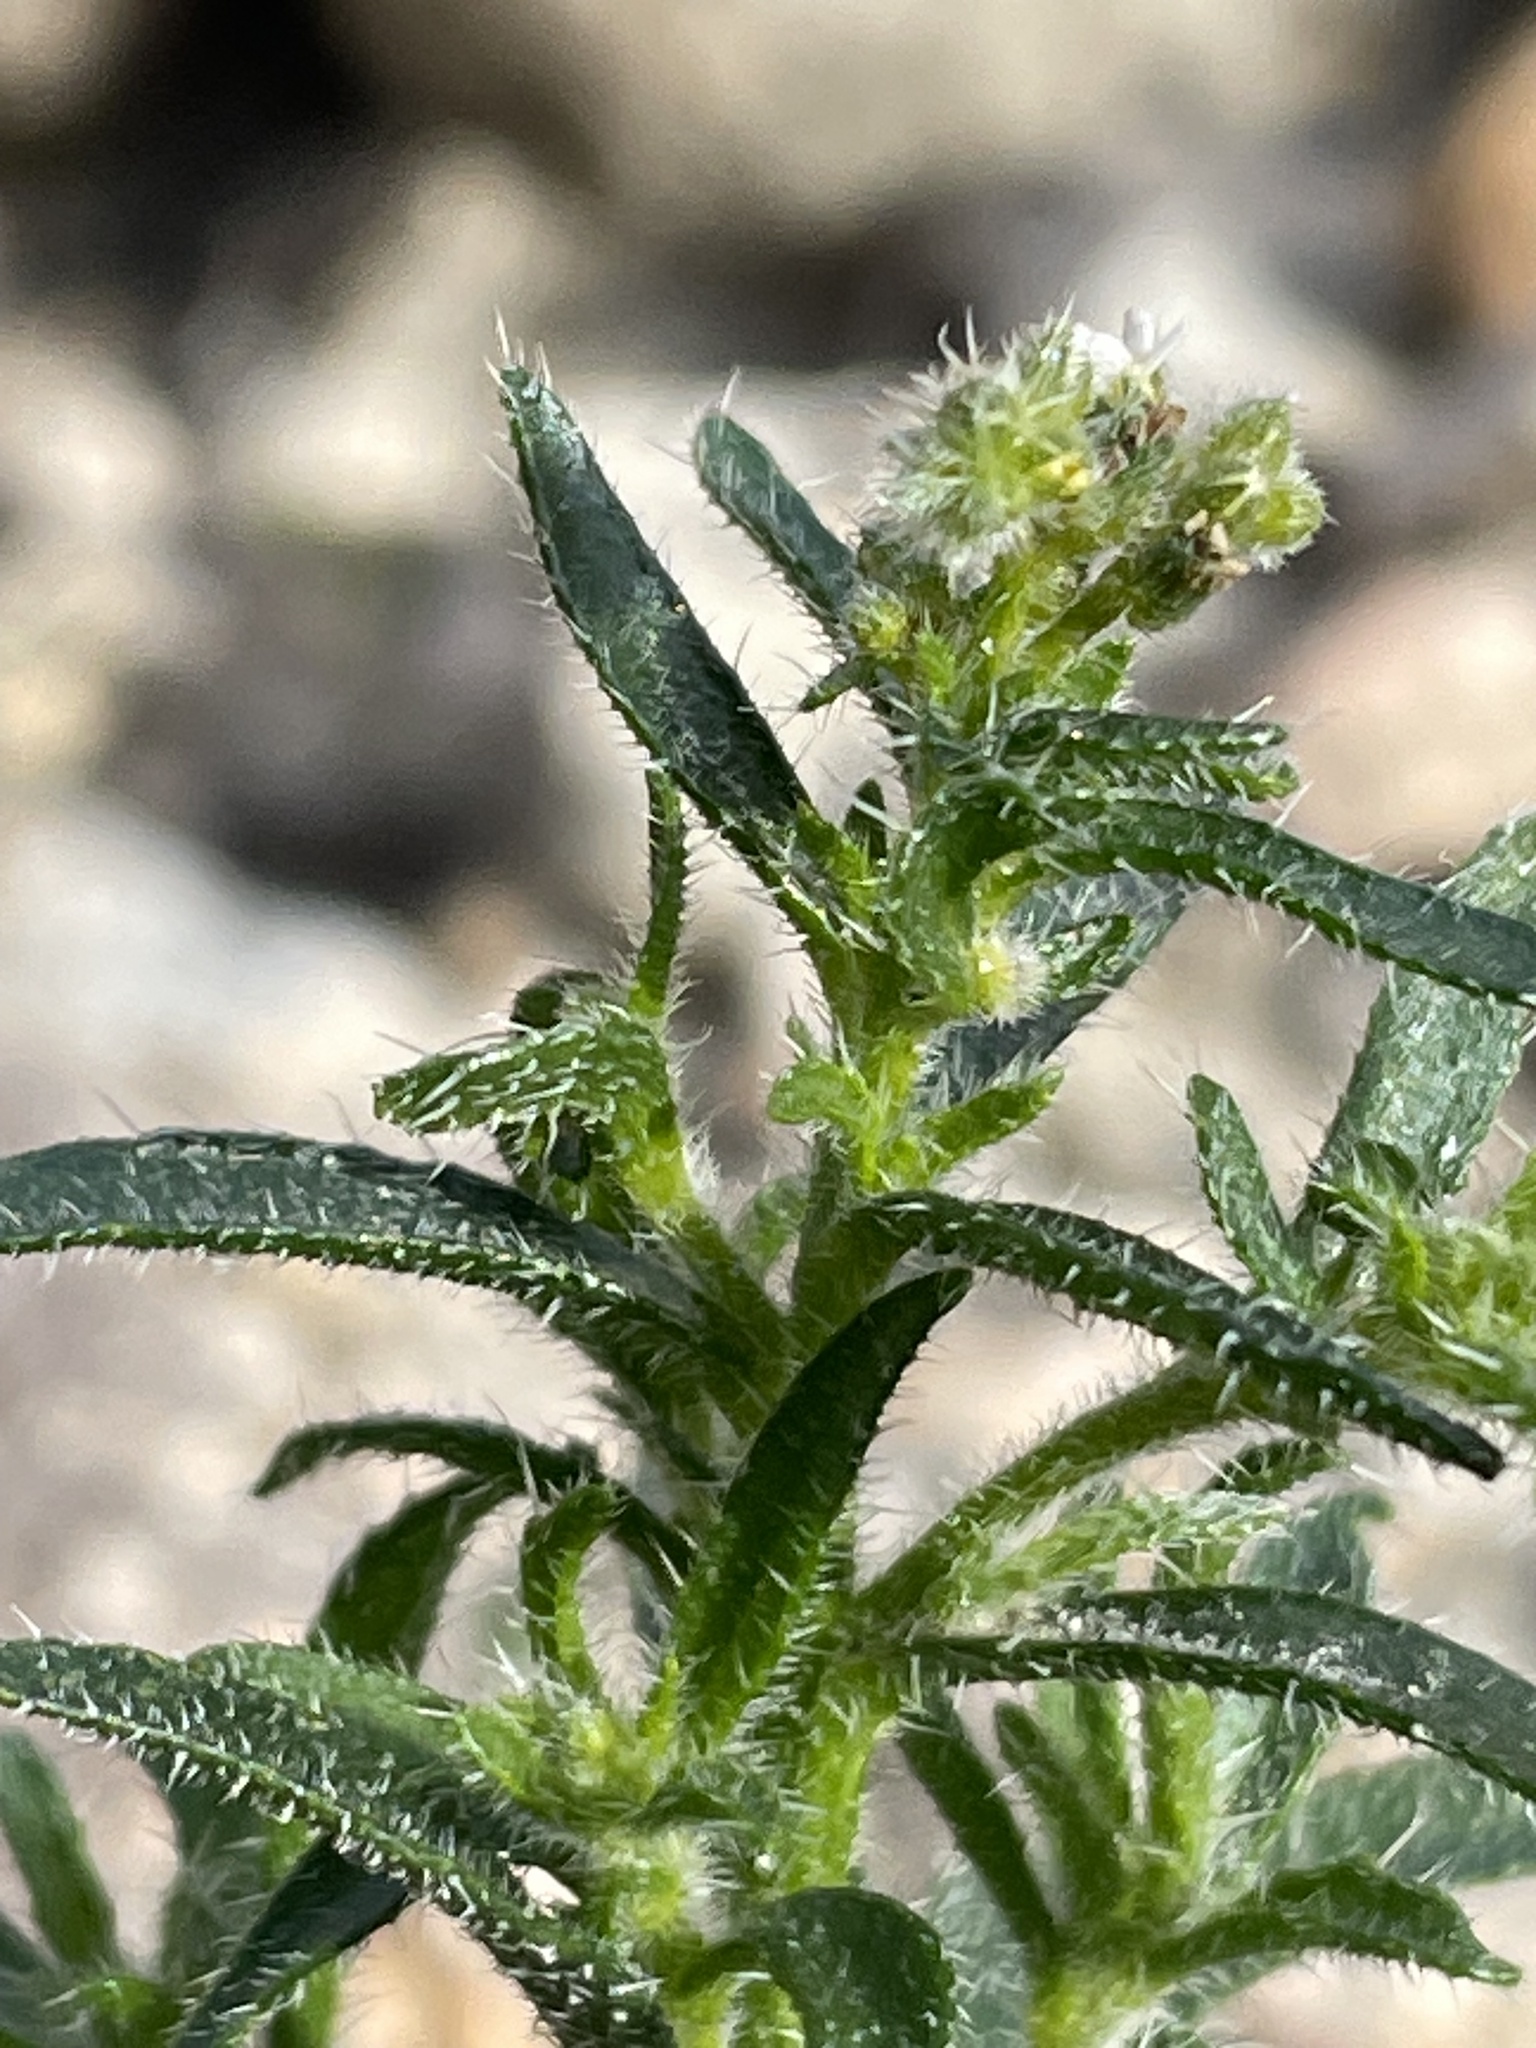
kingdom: Plantae
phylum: Tracheophyta
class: Magnoliopsida
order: Boraginales
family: Boraginaceae
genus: Johnstonella
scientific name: Johnstonella racemosa
